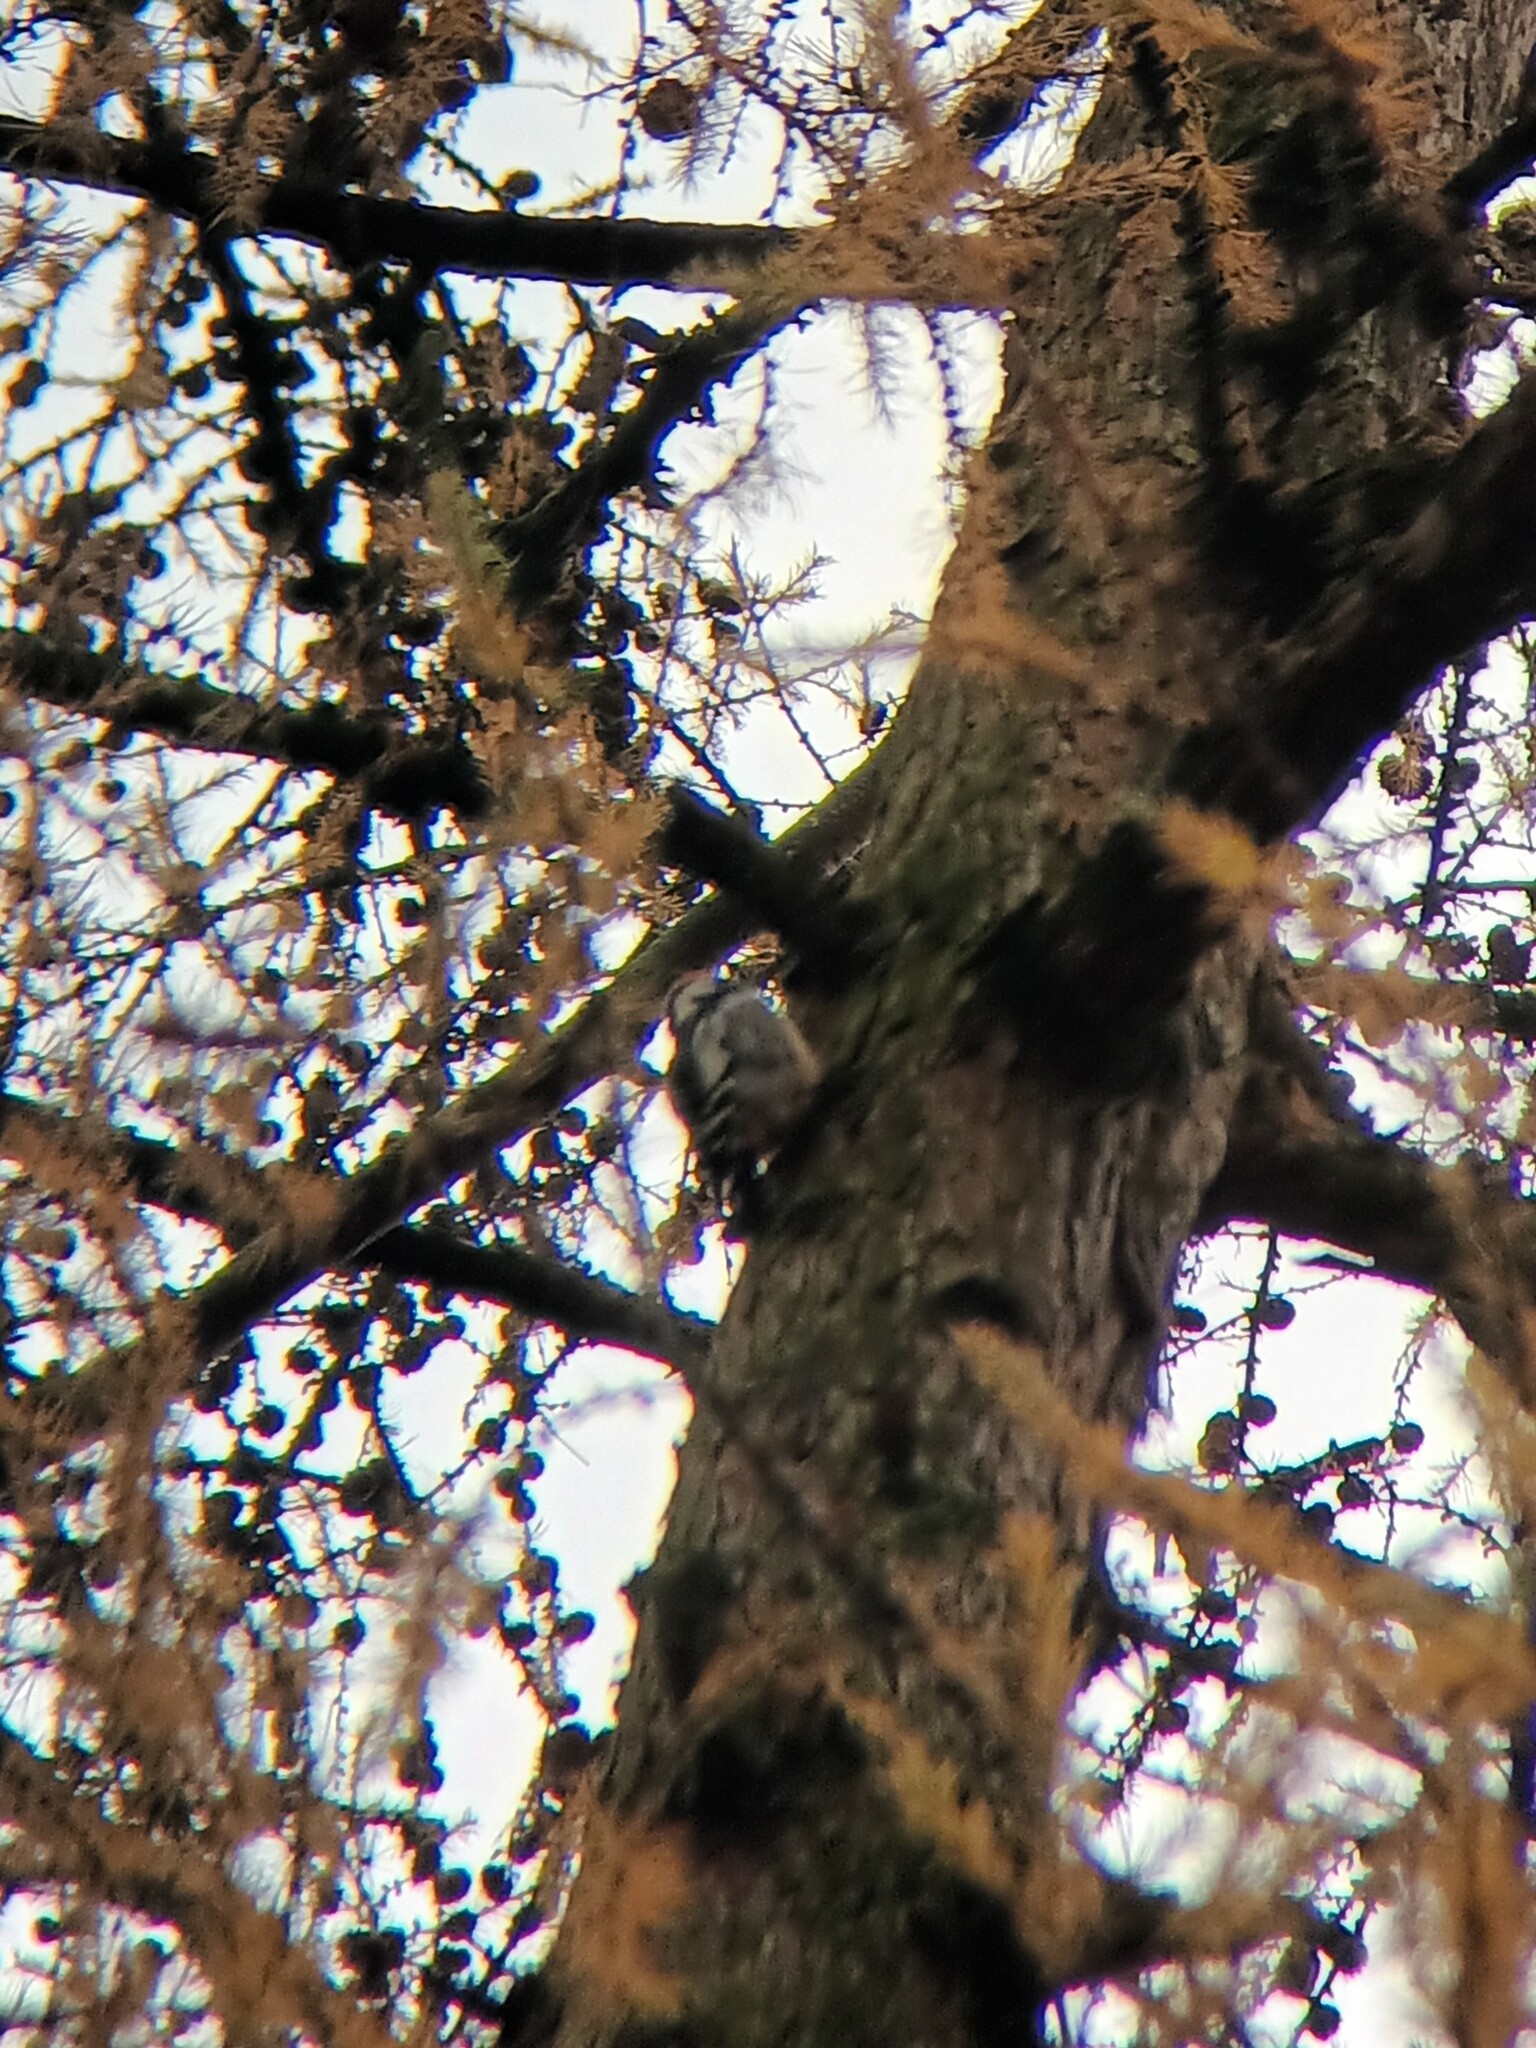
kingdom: Animalia
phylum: Chordata
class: Aves
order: Piciformes
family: Picidae
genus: Dendrocoptes
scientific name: Dendrocoptes medius
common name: Middle spotted woodpecker
